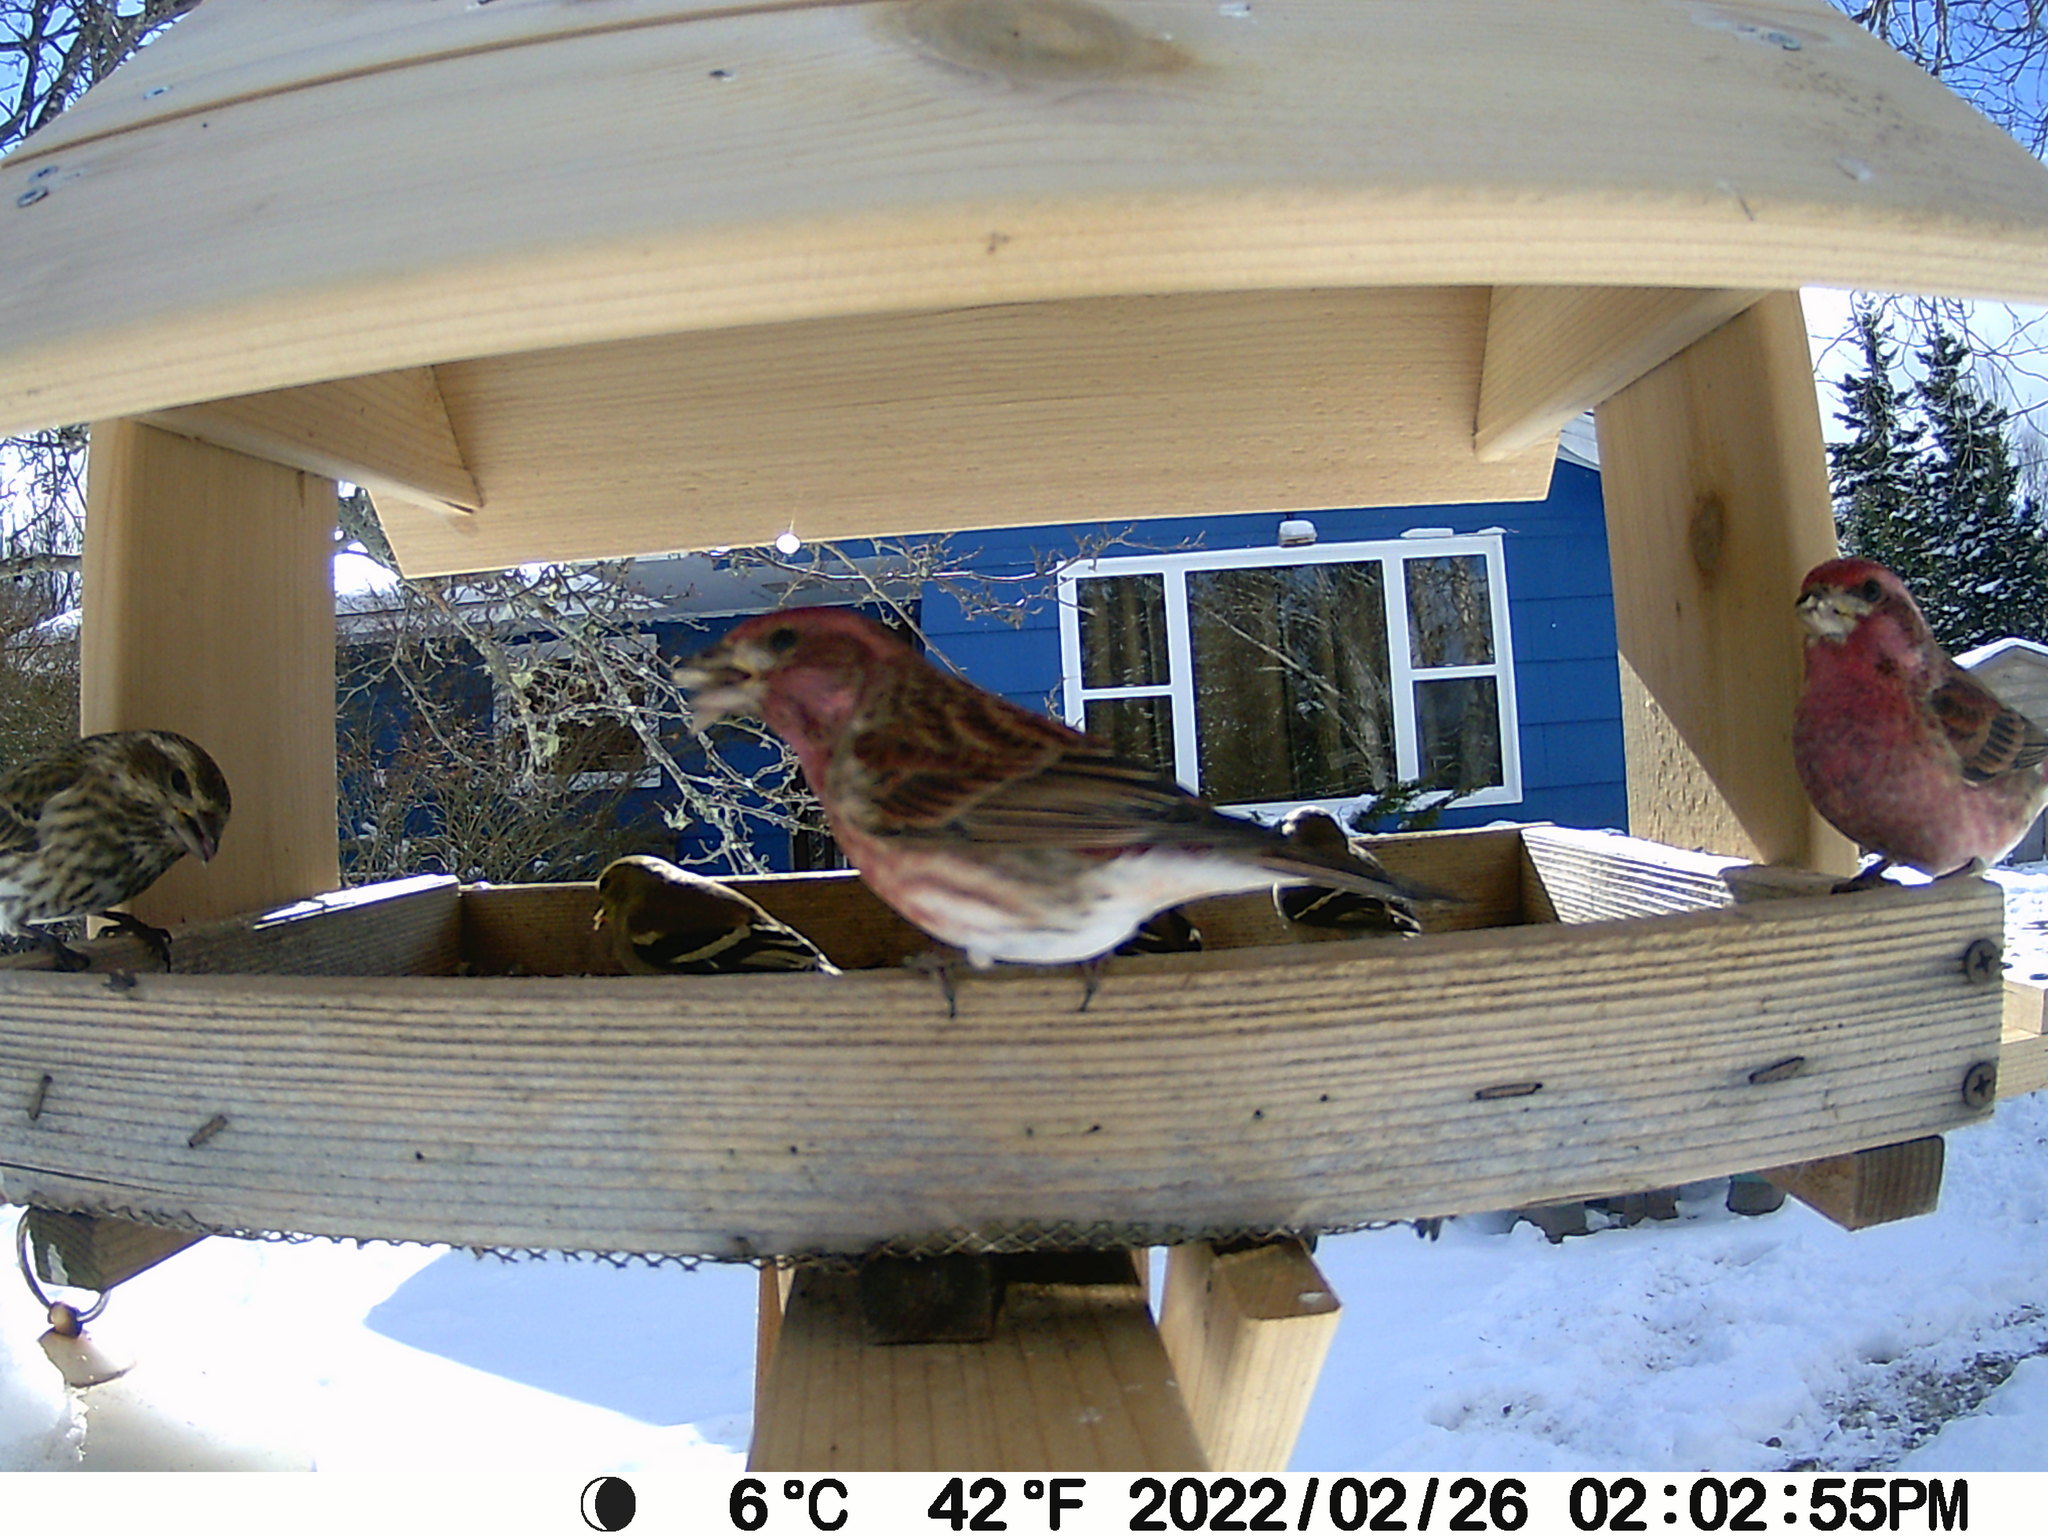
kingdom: Animalia
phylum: Chordata
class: Aves
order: Passeriformes
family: Fringillidae
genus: Haemorhous
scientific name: Haemorhous purpureus
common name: Purple finch
